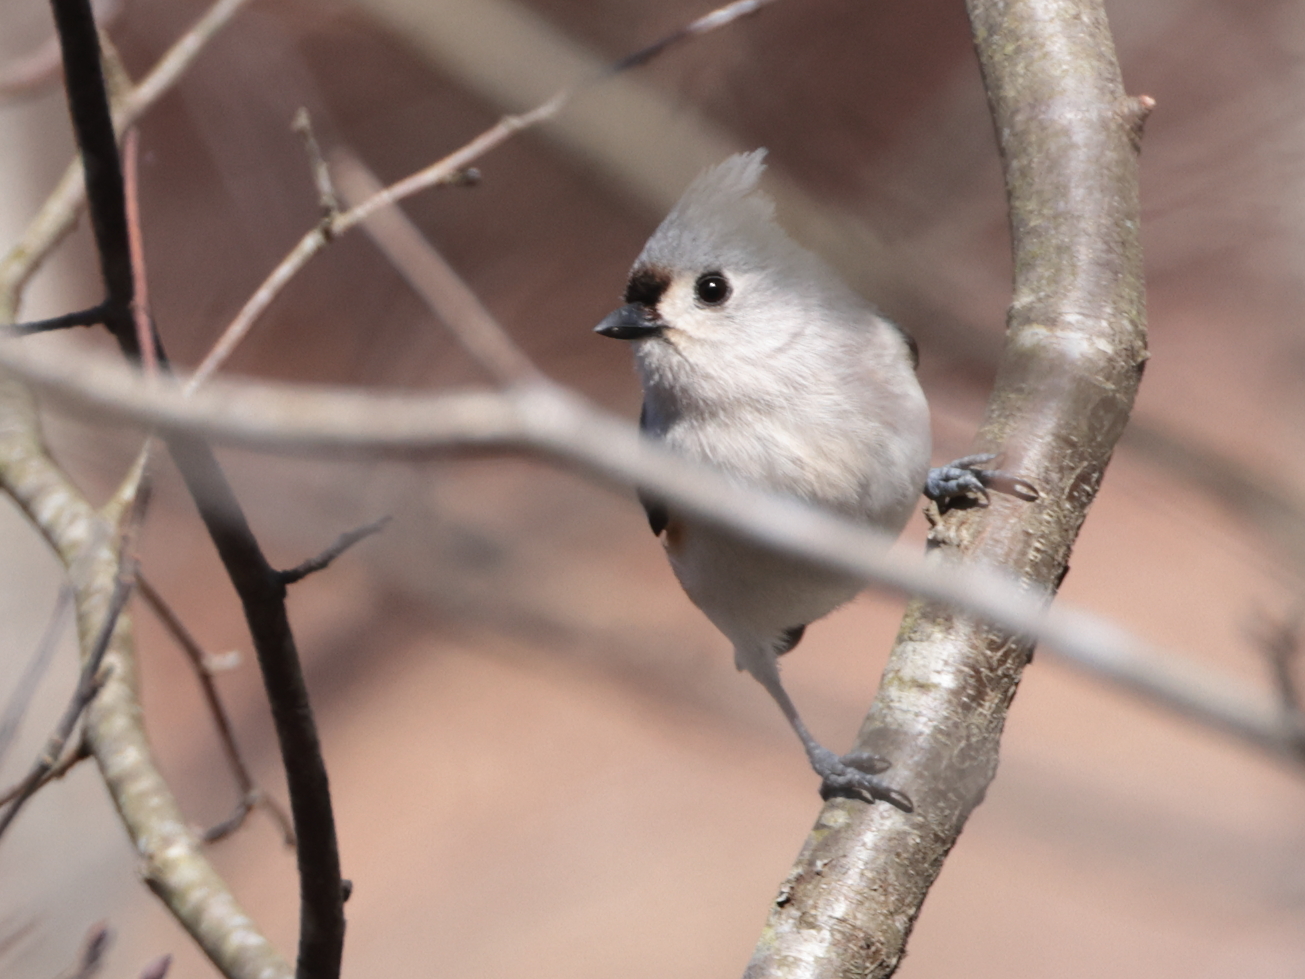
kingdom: Animalia
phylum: Chordata
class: Aves
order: Passeriformes
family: Paridae
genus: Baeolophus
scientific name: Baeolophus bicolor
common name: Tufted titmouse
